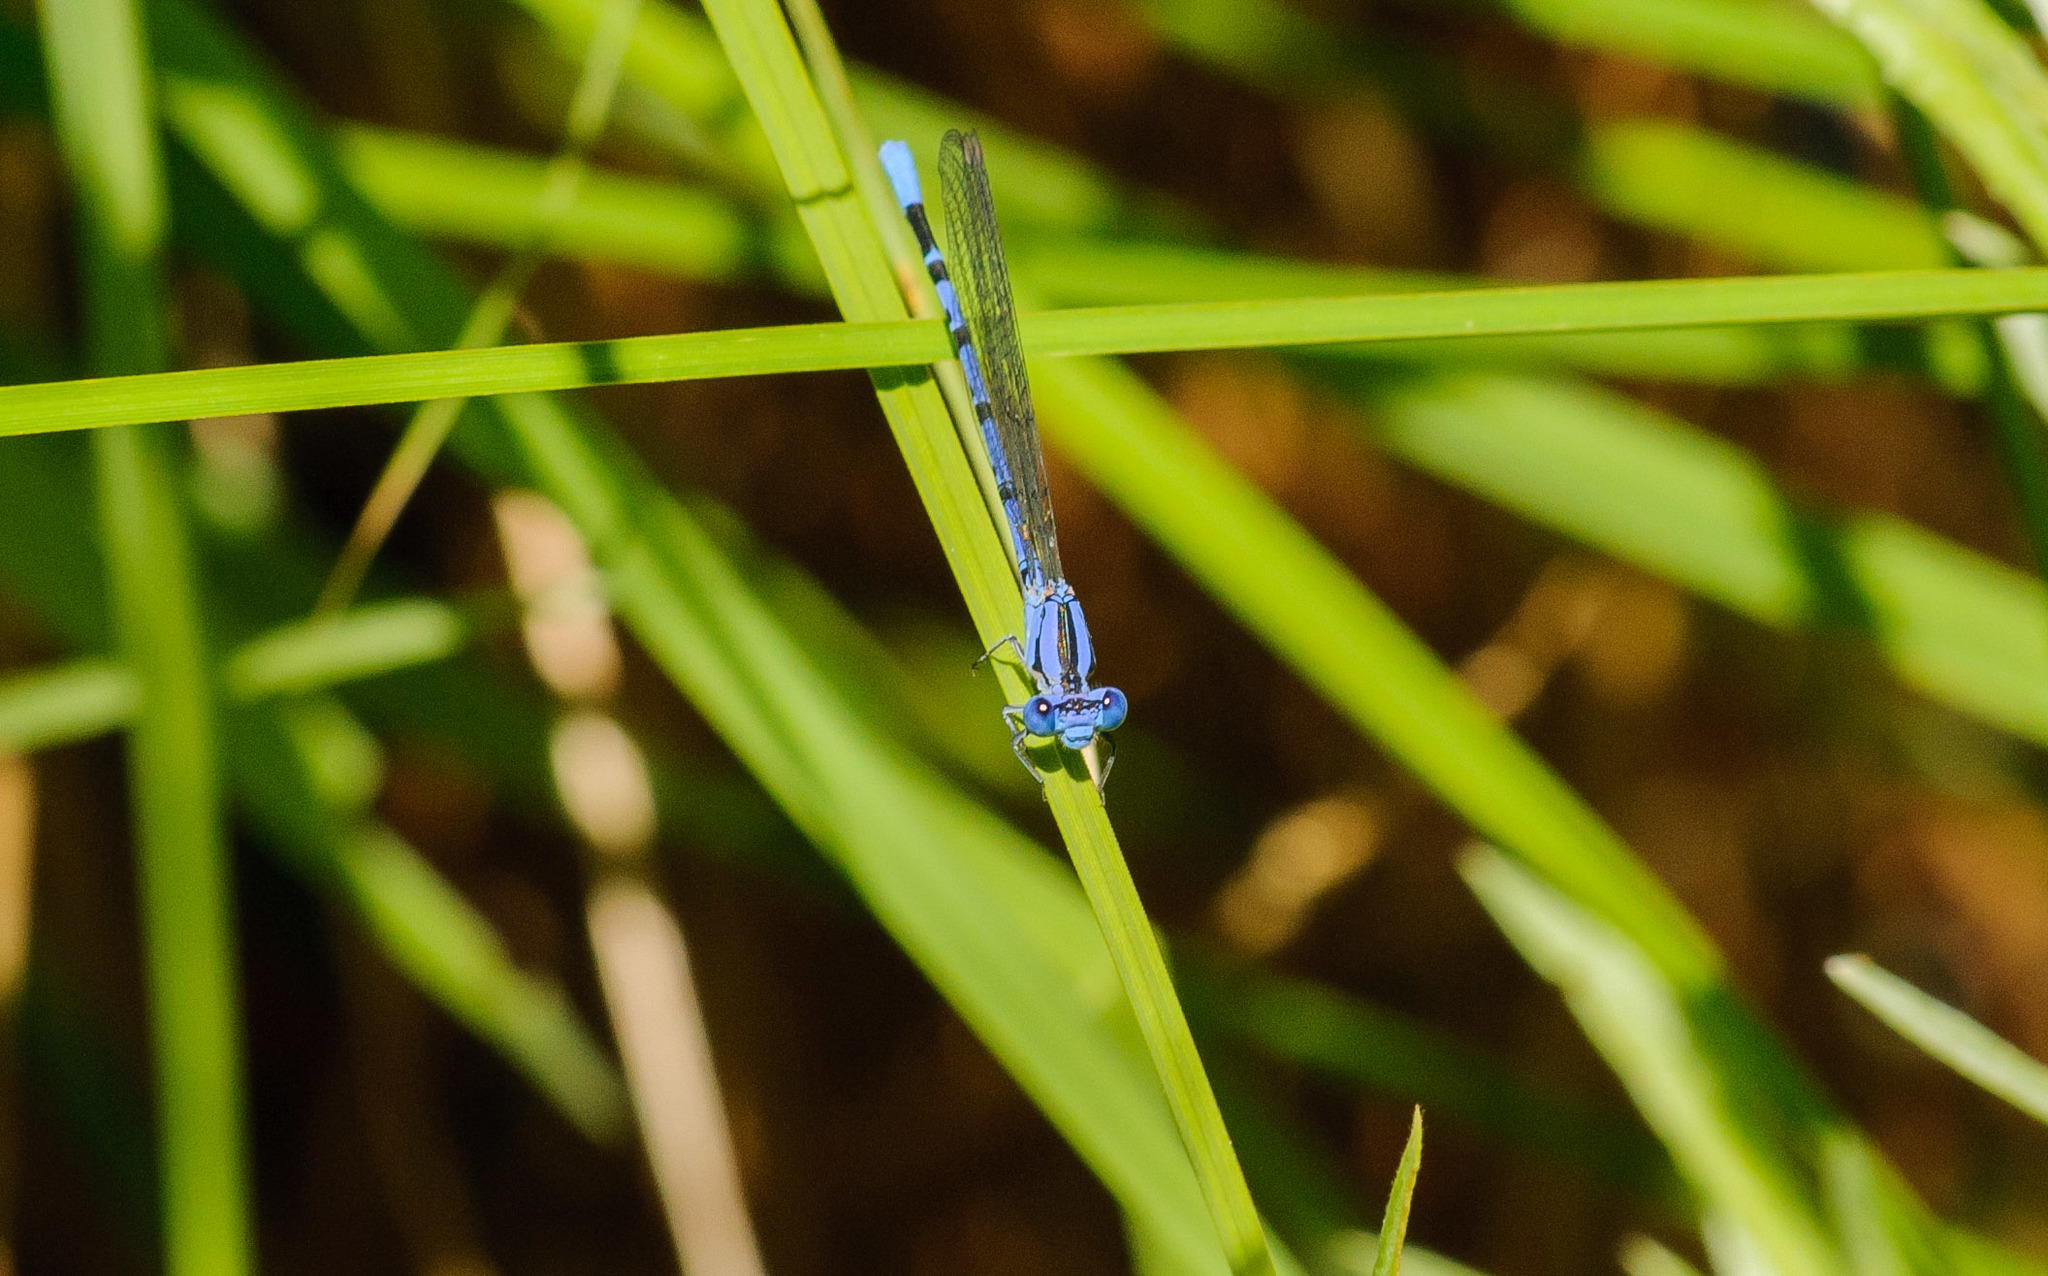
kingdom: Animalia
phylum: Arthropoda
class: Insecta
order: Odonata
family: Coenagrionidae
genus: Argia
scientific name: Argia vivida
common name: Vivid dancer
